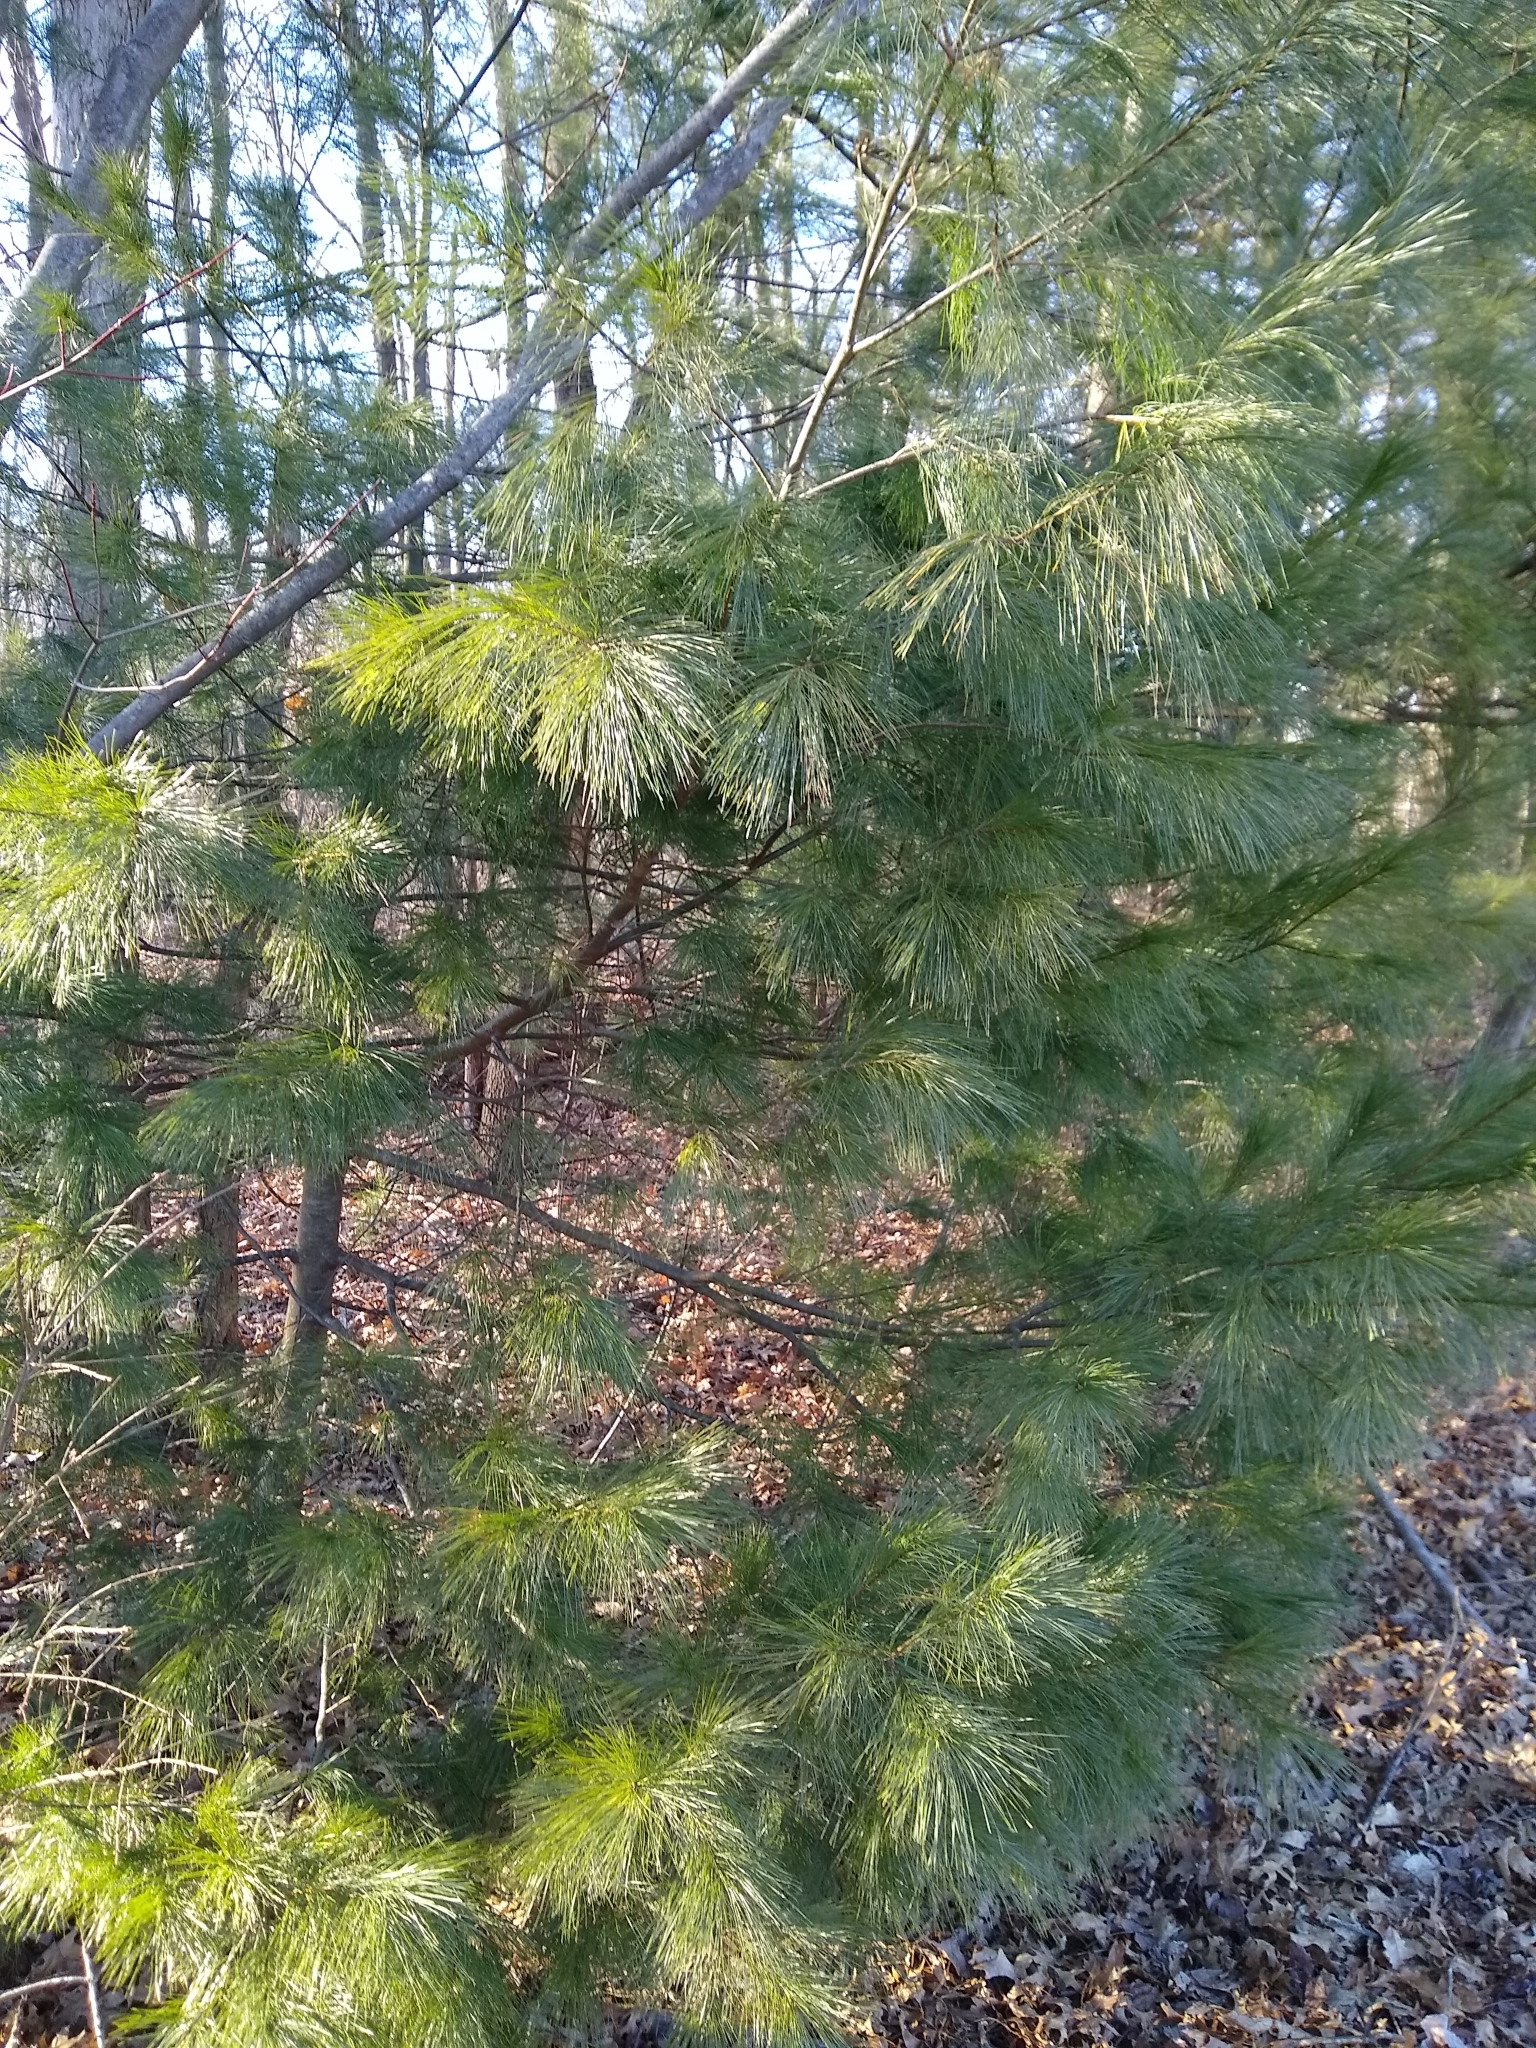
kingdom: Plantae
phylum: Tracheophyta
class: Pinopsida
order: Pinales
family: Pinaceae
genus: Pinus
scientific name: Pinus strobus
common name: Weymouth pine
